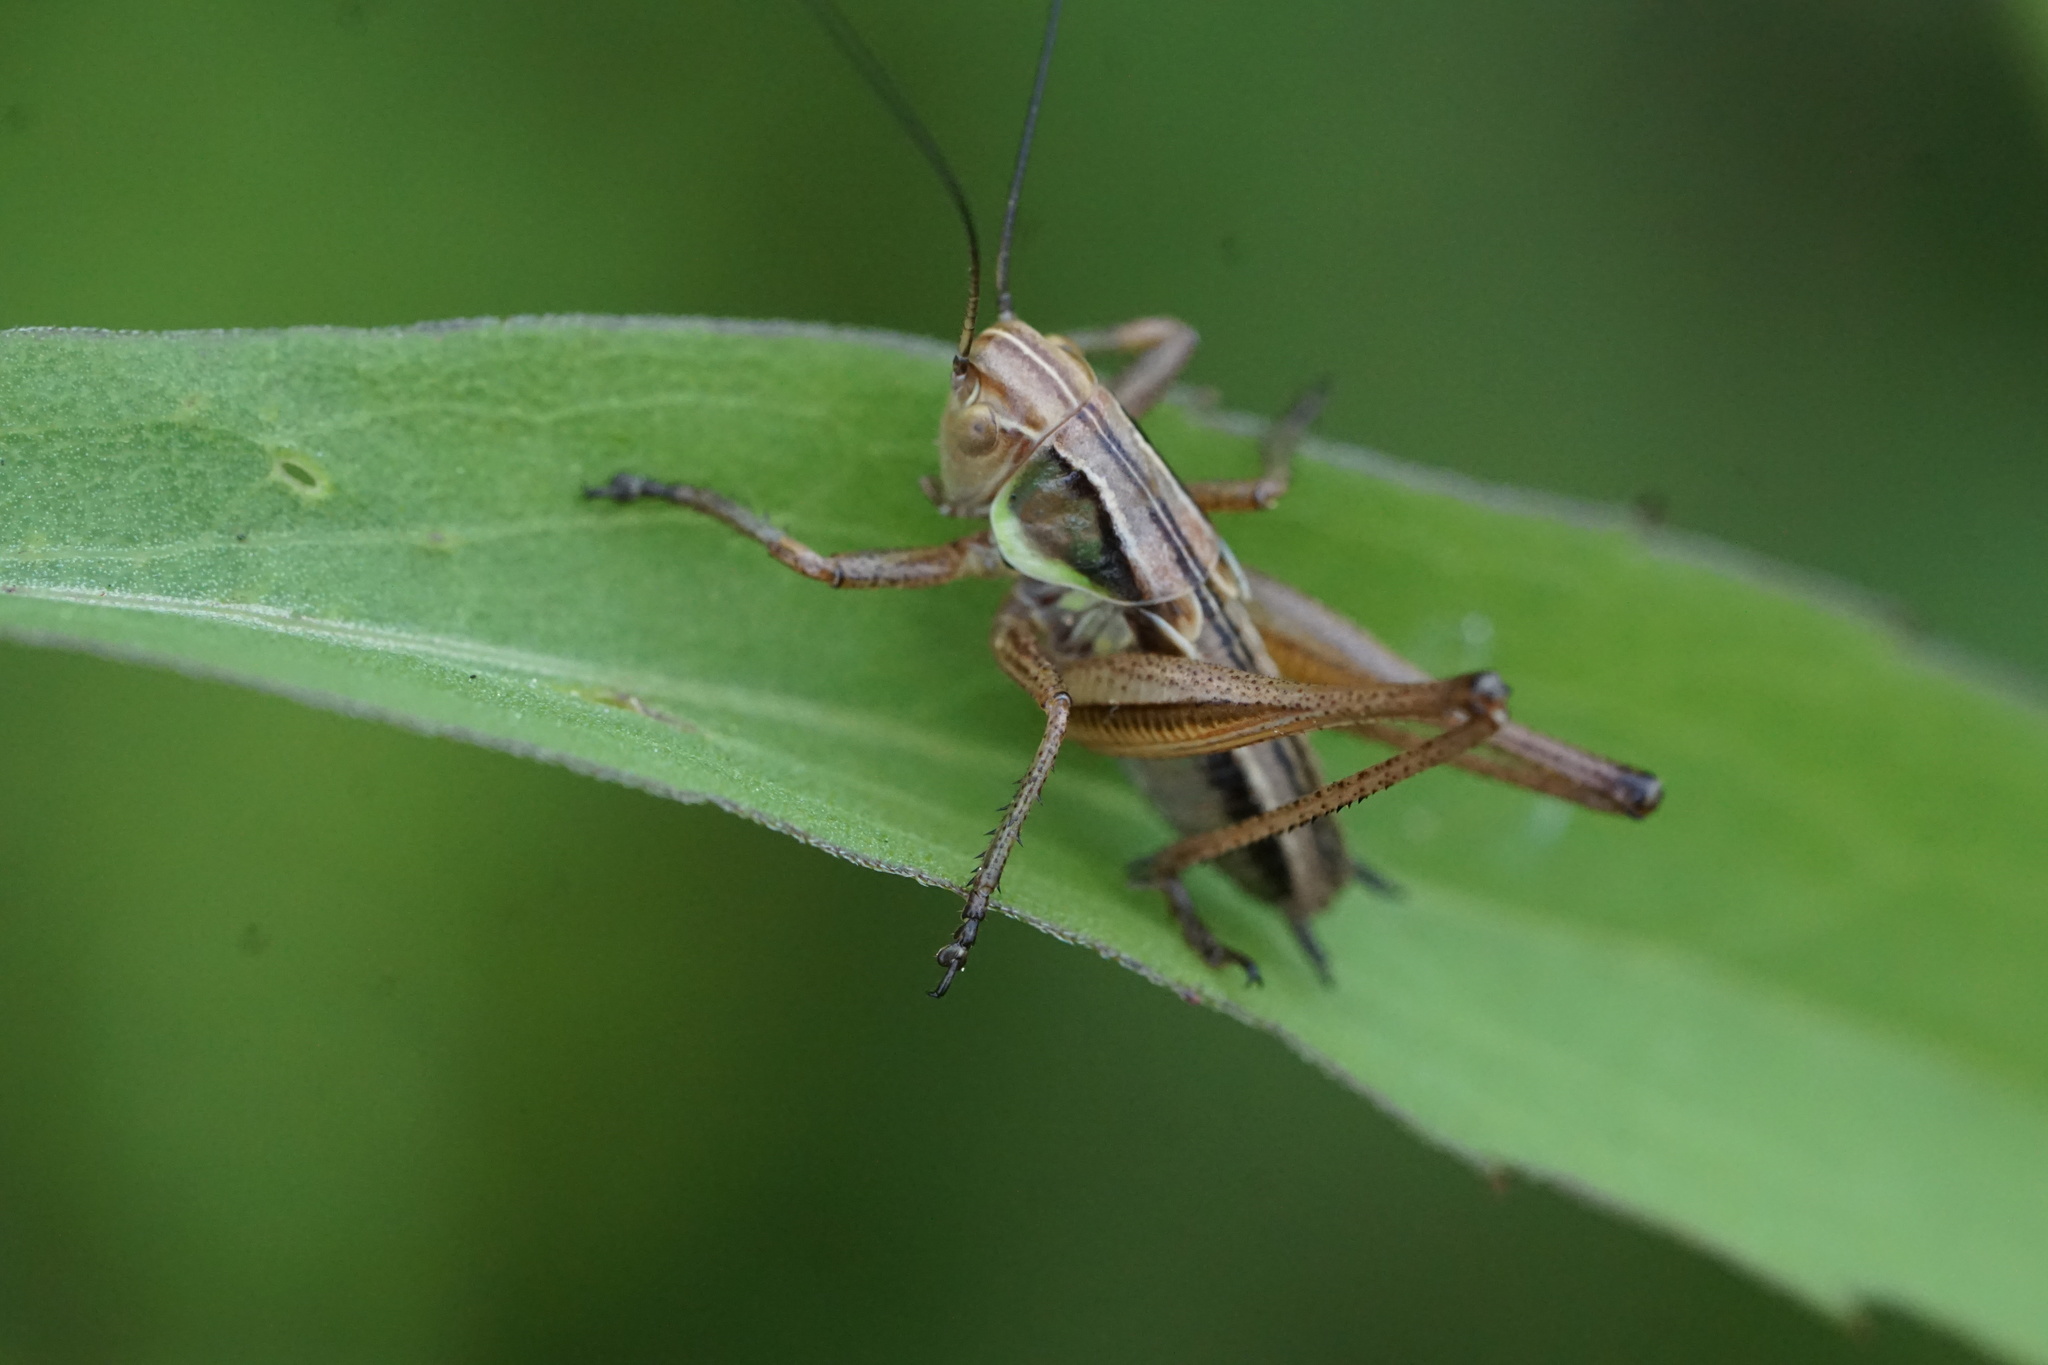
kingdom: Animalia
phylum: Arthropoda
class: Insecta
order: Orthoptera
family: Tettigoniidae
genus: Roeseliana
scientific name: Roeseliana roeselii
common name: Roesel's bush cricket
